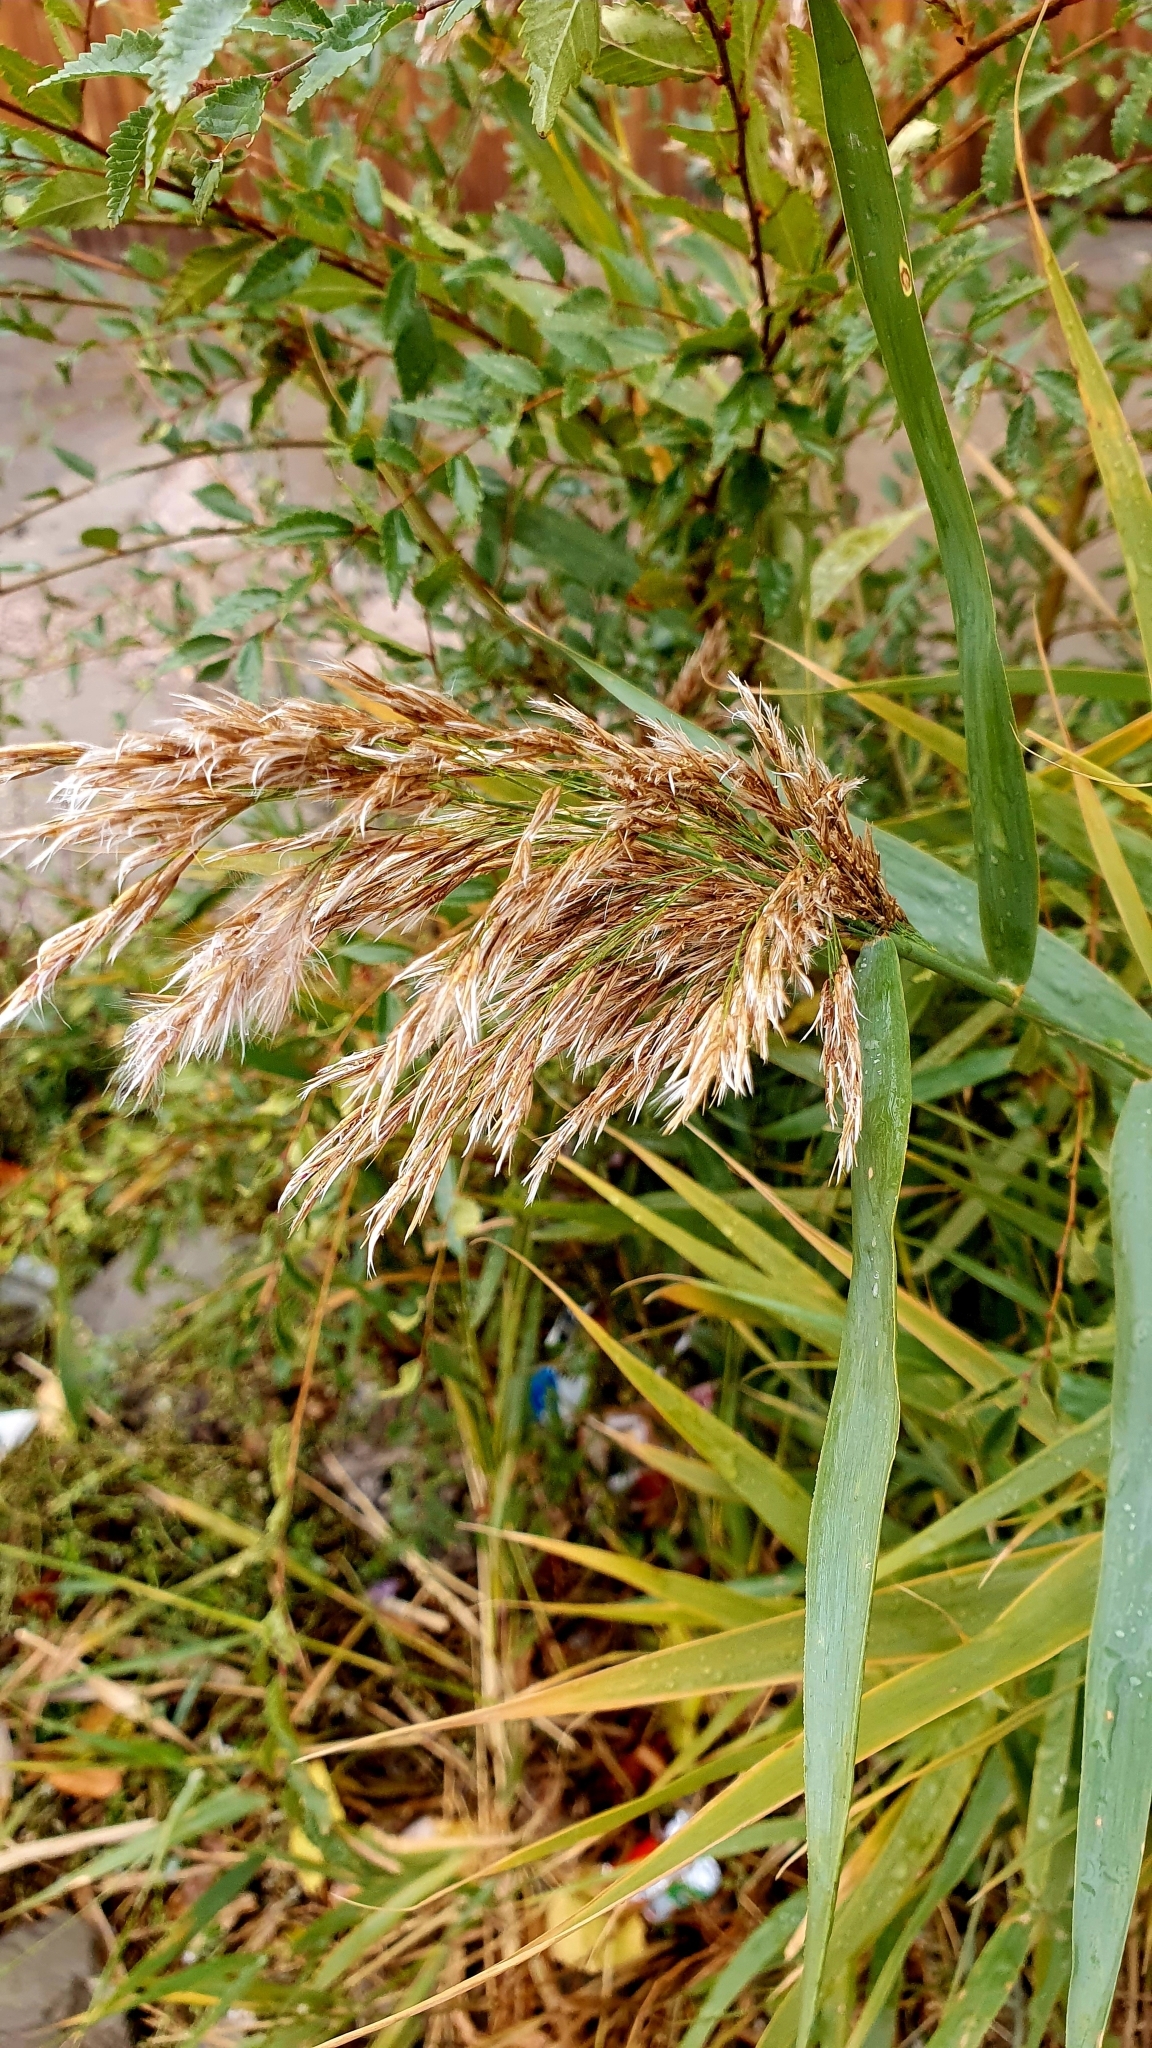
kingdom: Plantae
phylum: Tracheophyta
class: Liliopsida
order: Poales
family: Poaceae
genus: Phragmites
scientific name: Phragmites australis
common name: Common reed
